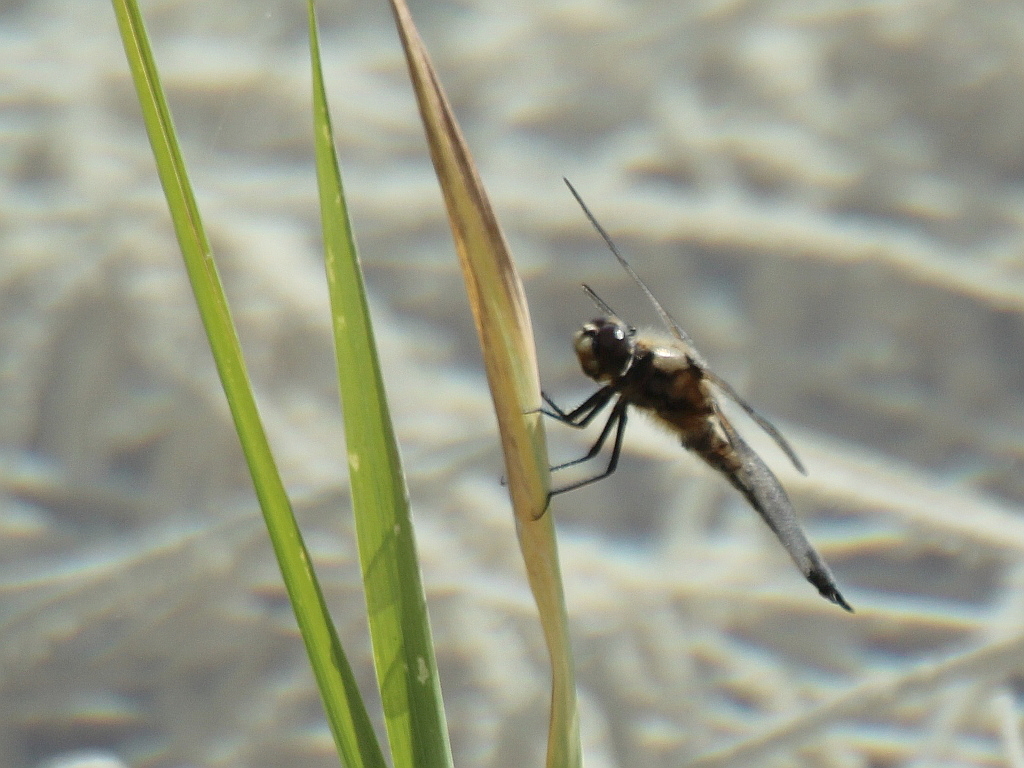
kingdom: Animalia
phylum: Arthropoda
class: Insecta
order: Odonata
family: Libellulidae
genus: Libellula
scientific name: Libellula quadrimaculata
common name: Four-spotted chaser
